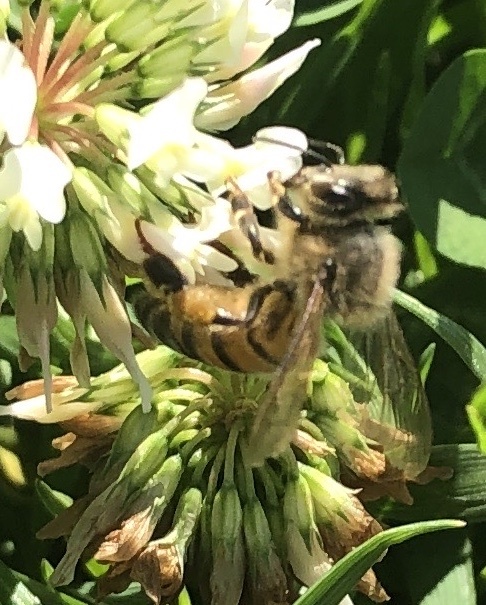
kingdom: Animalia
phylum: Arthropoda
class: Insecta
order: Hymenoptera
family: Apidae
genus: Apis
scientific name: Apis mellifera
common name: Honey bee
